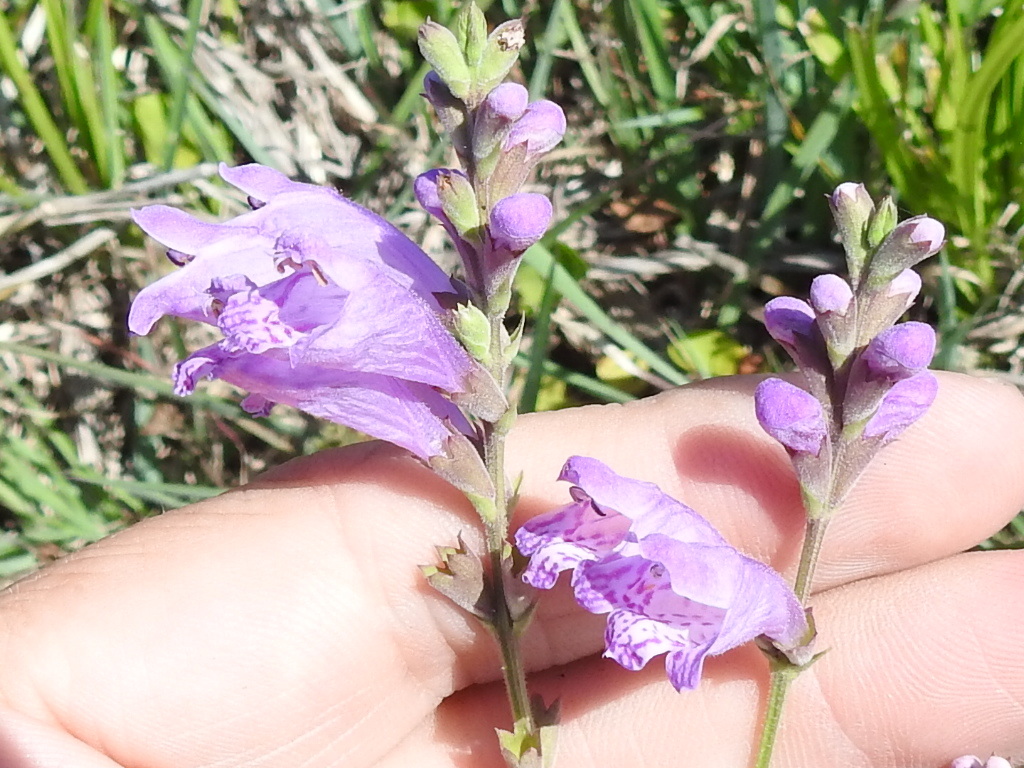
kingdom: Plantae
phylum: Tracheophyta
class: Magnoliopsida
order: Lamiales
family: Lamiaceae
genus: Physostegia
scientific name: Physostegia virginiana
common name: Obedient-plant
